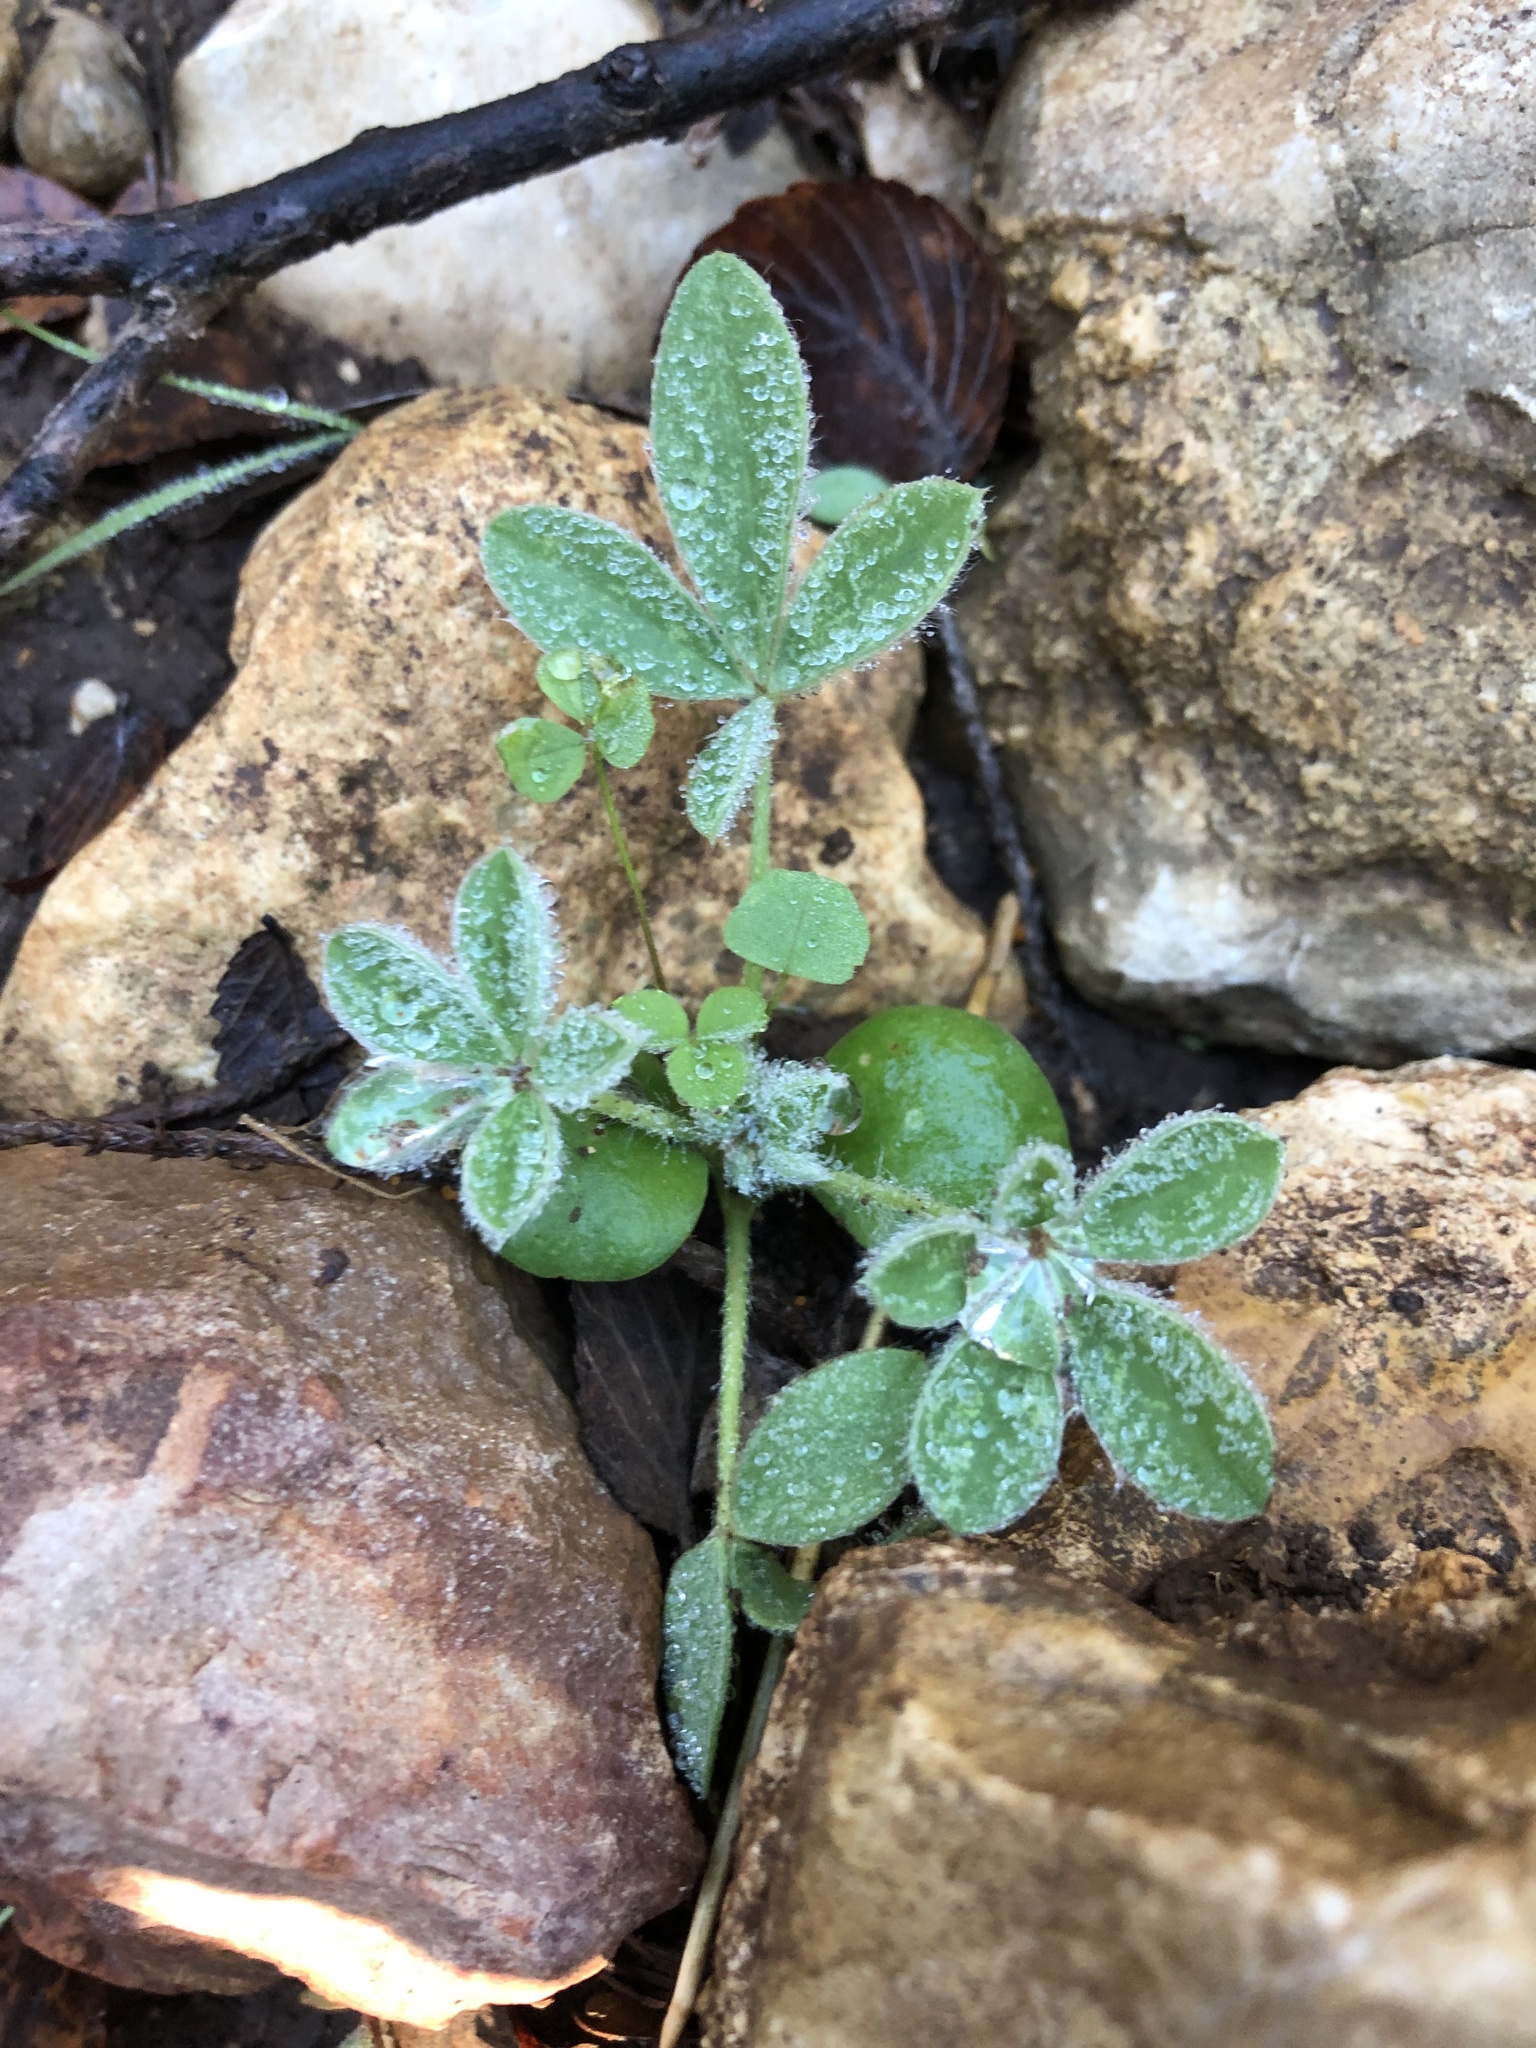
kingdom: Plantae
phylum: Tracheophyta
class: Magnoliopsida
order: Fabales
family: Fabaceae
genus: Lupinus
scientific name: Lupinus texensis
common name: Texas bluebonnet
